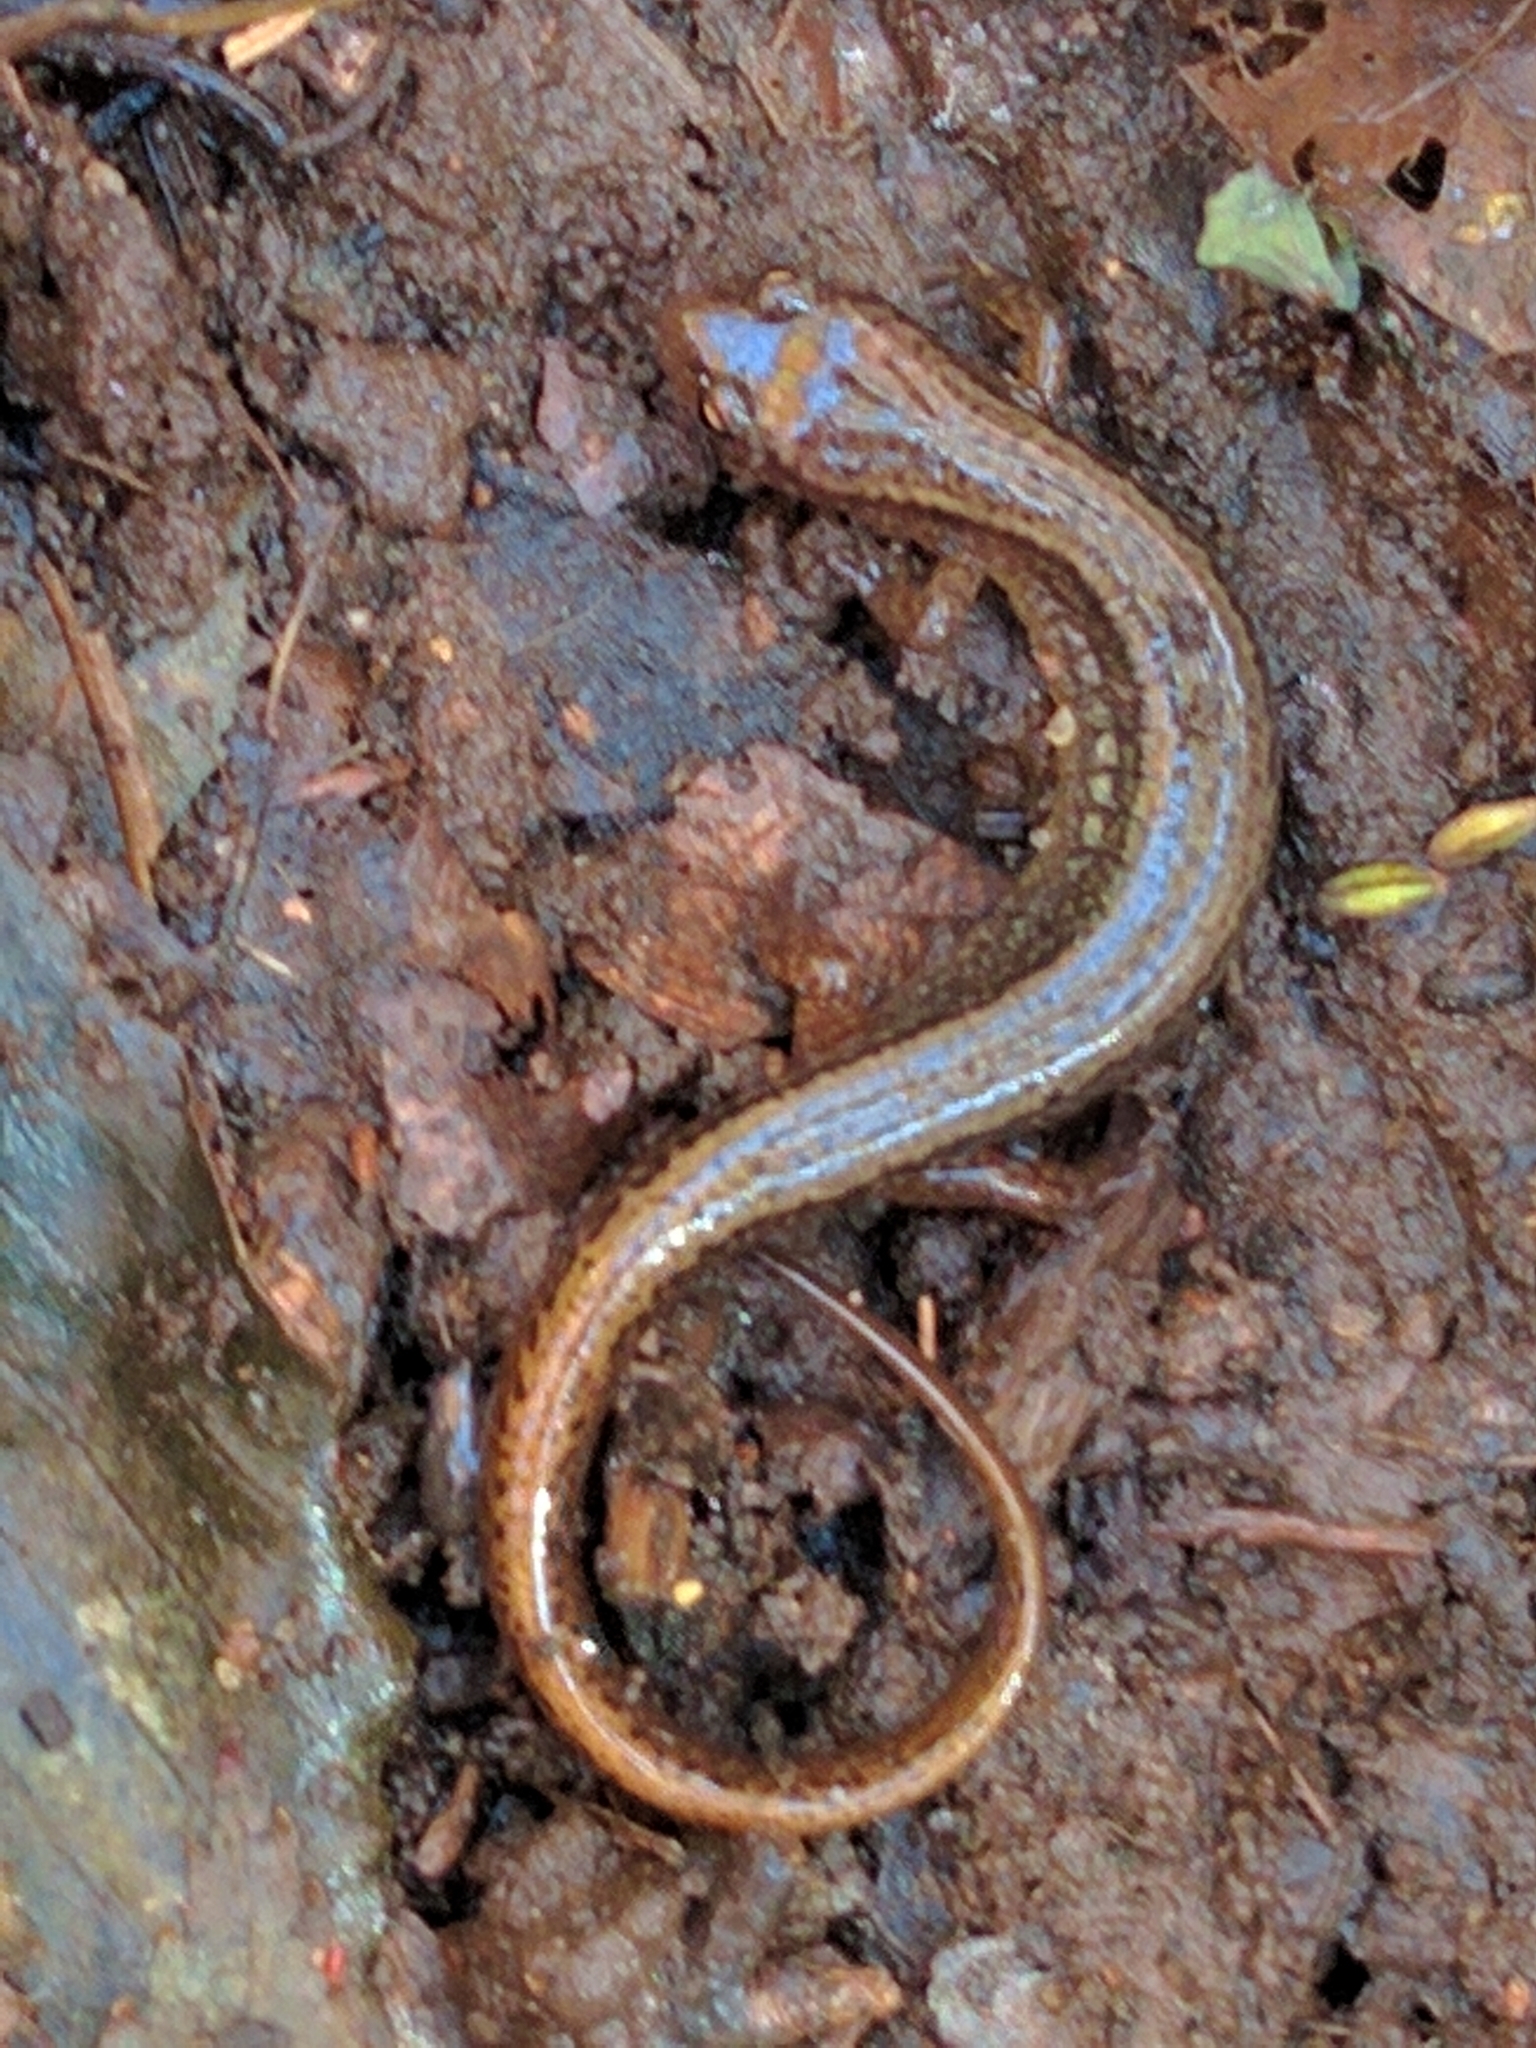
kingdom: Animalia
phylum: Chordata
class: Amphibia
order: Caudata
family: Plethodontidae
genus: Eurycea
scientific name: Eurycea bislineata
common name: Northern two-lined salamander
